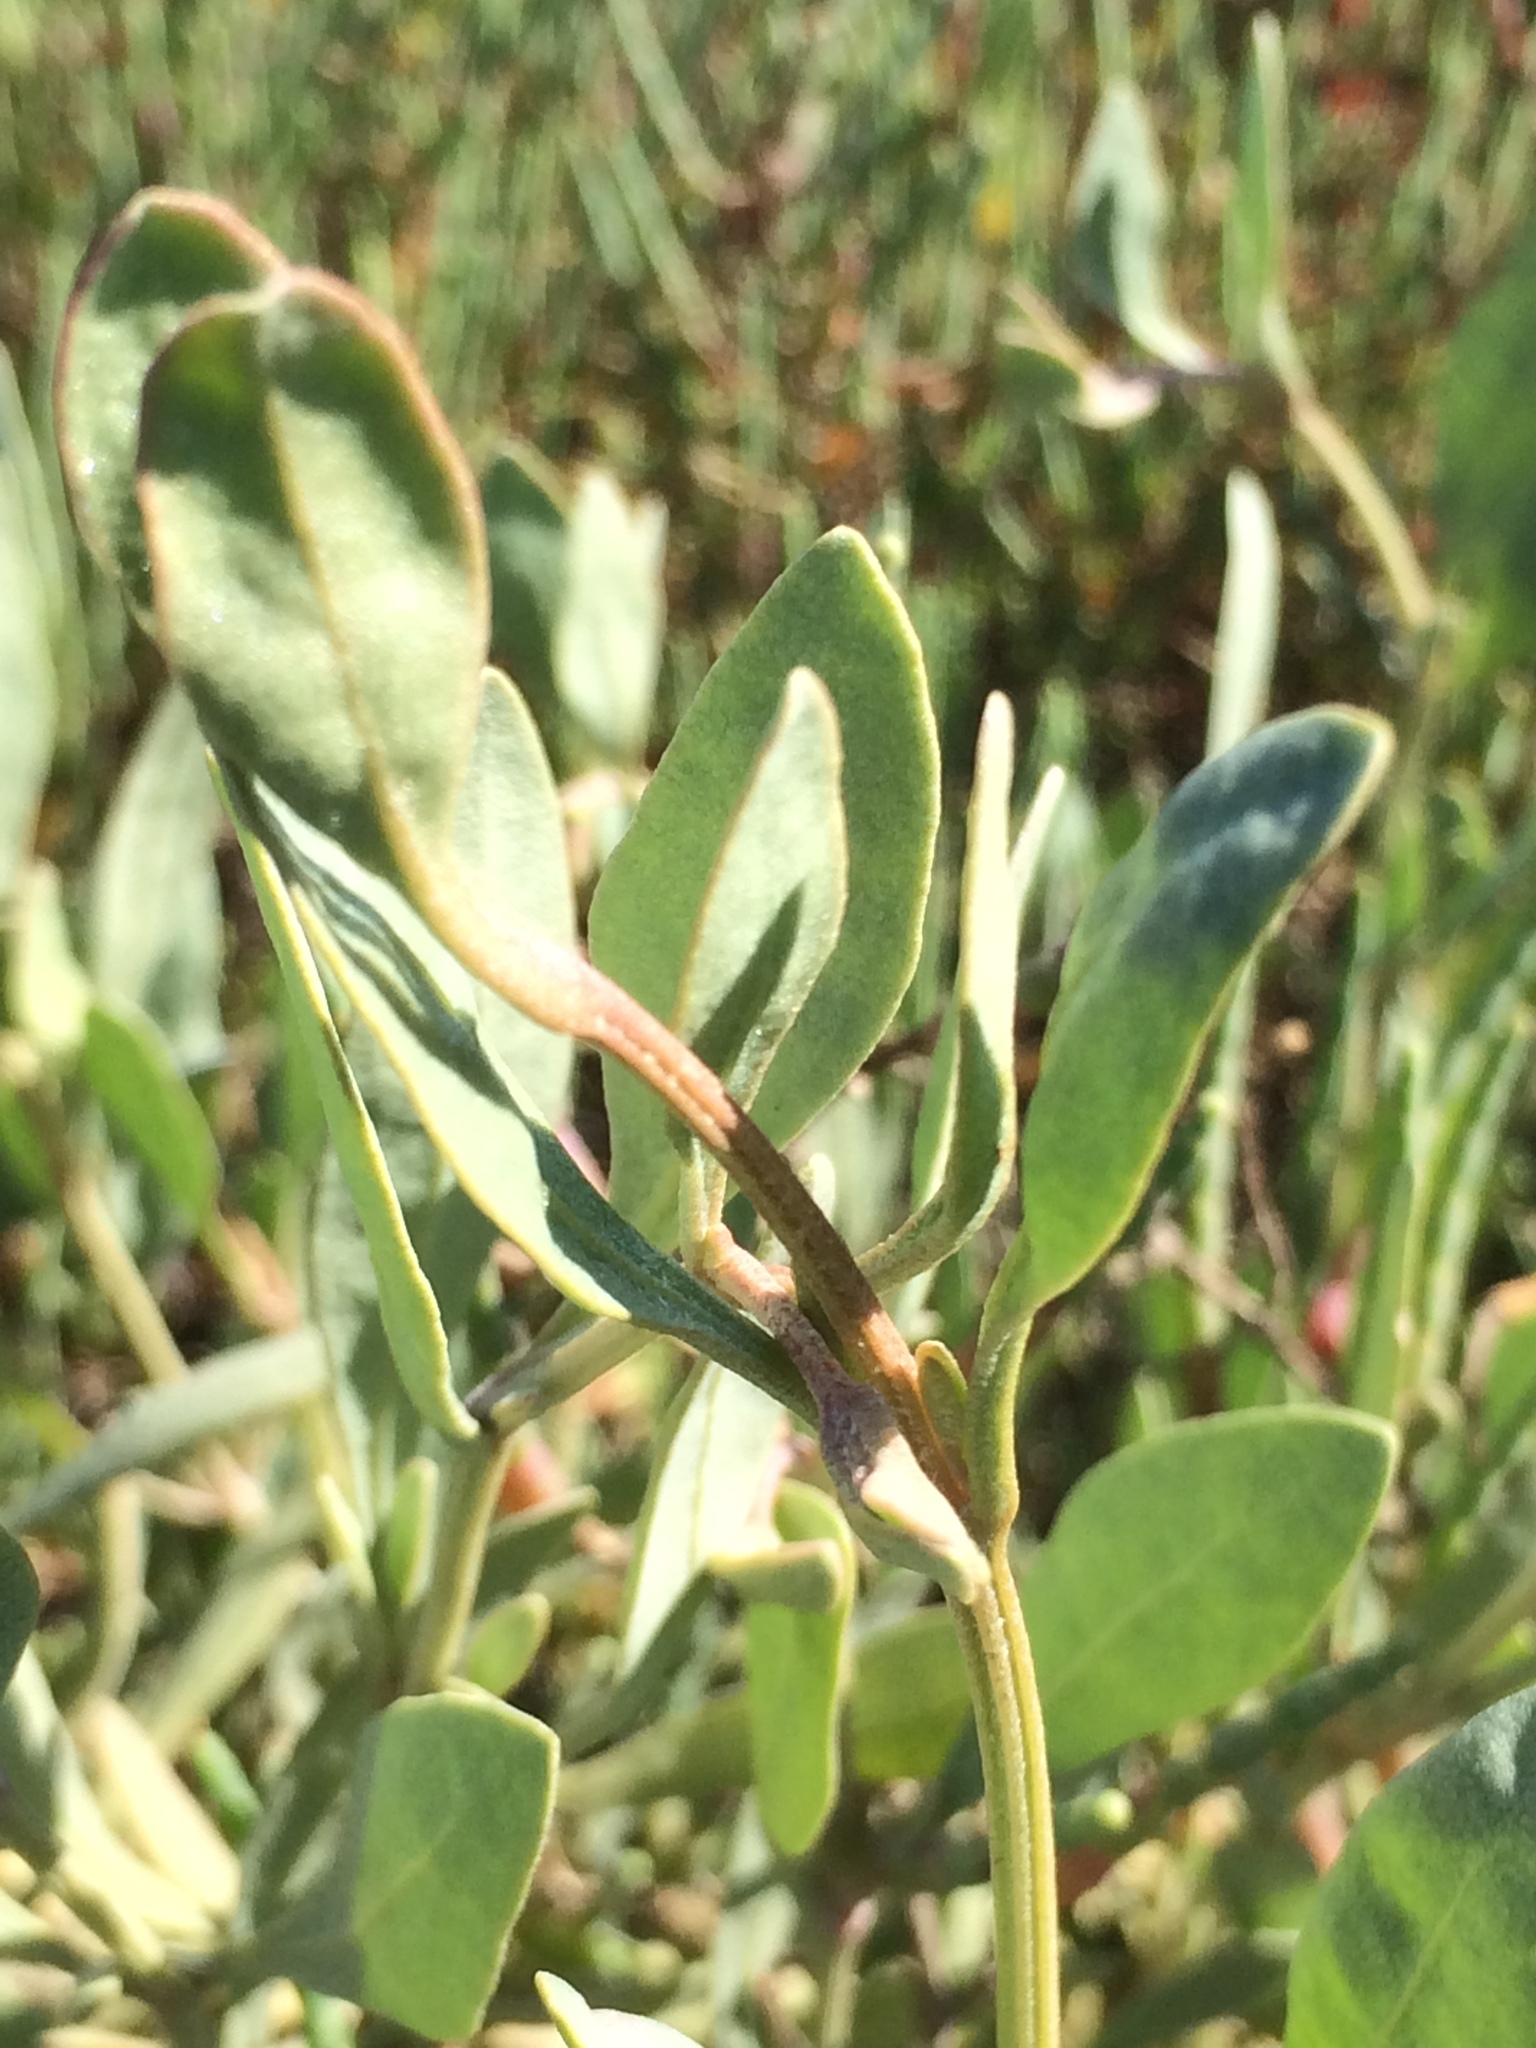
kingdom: Plantae
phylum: Tracheophyta
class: Magnoliopsida
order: Caryophyllales
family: Amaranthaceae
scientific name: Amaranthaceae
